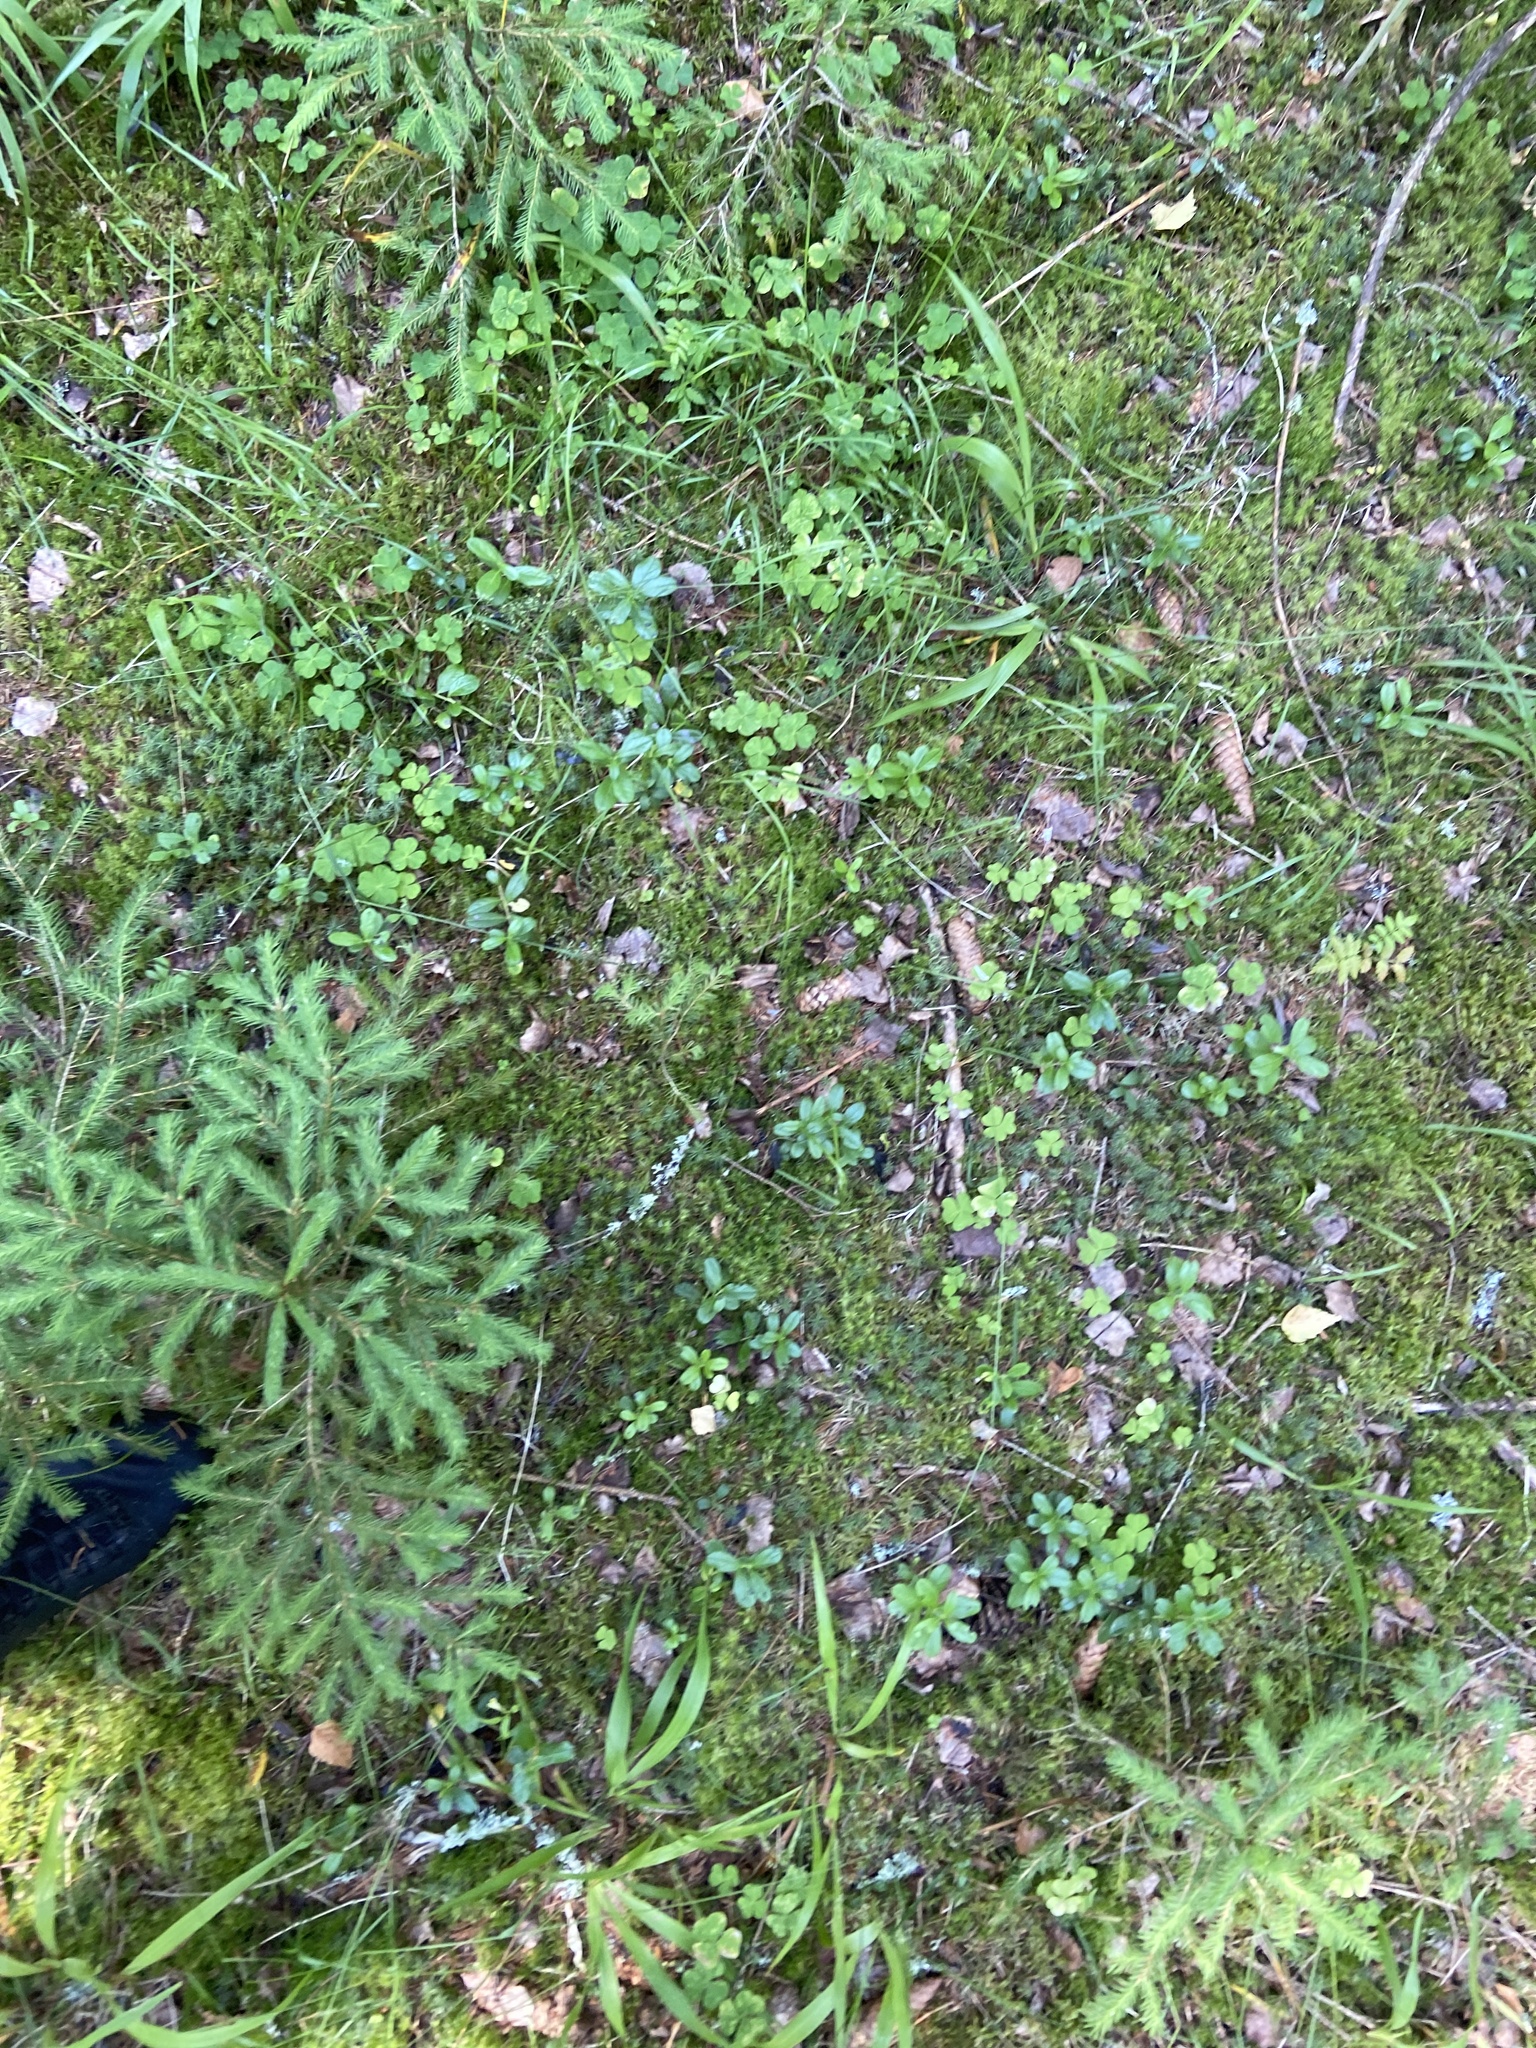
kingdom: Plantae
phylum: Tracheophyta
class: Magnoliopsida
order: Ericales
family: Ericaceae
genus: Vaccinium
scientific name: Vaccinium vitis-idaea
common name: Cowberry
